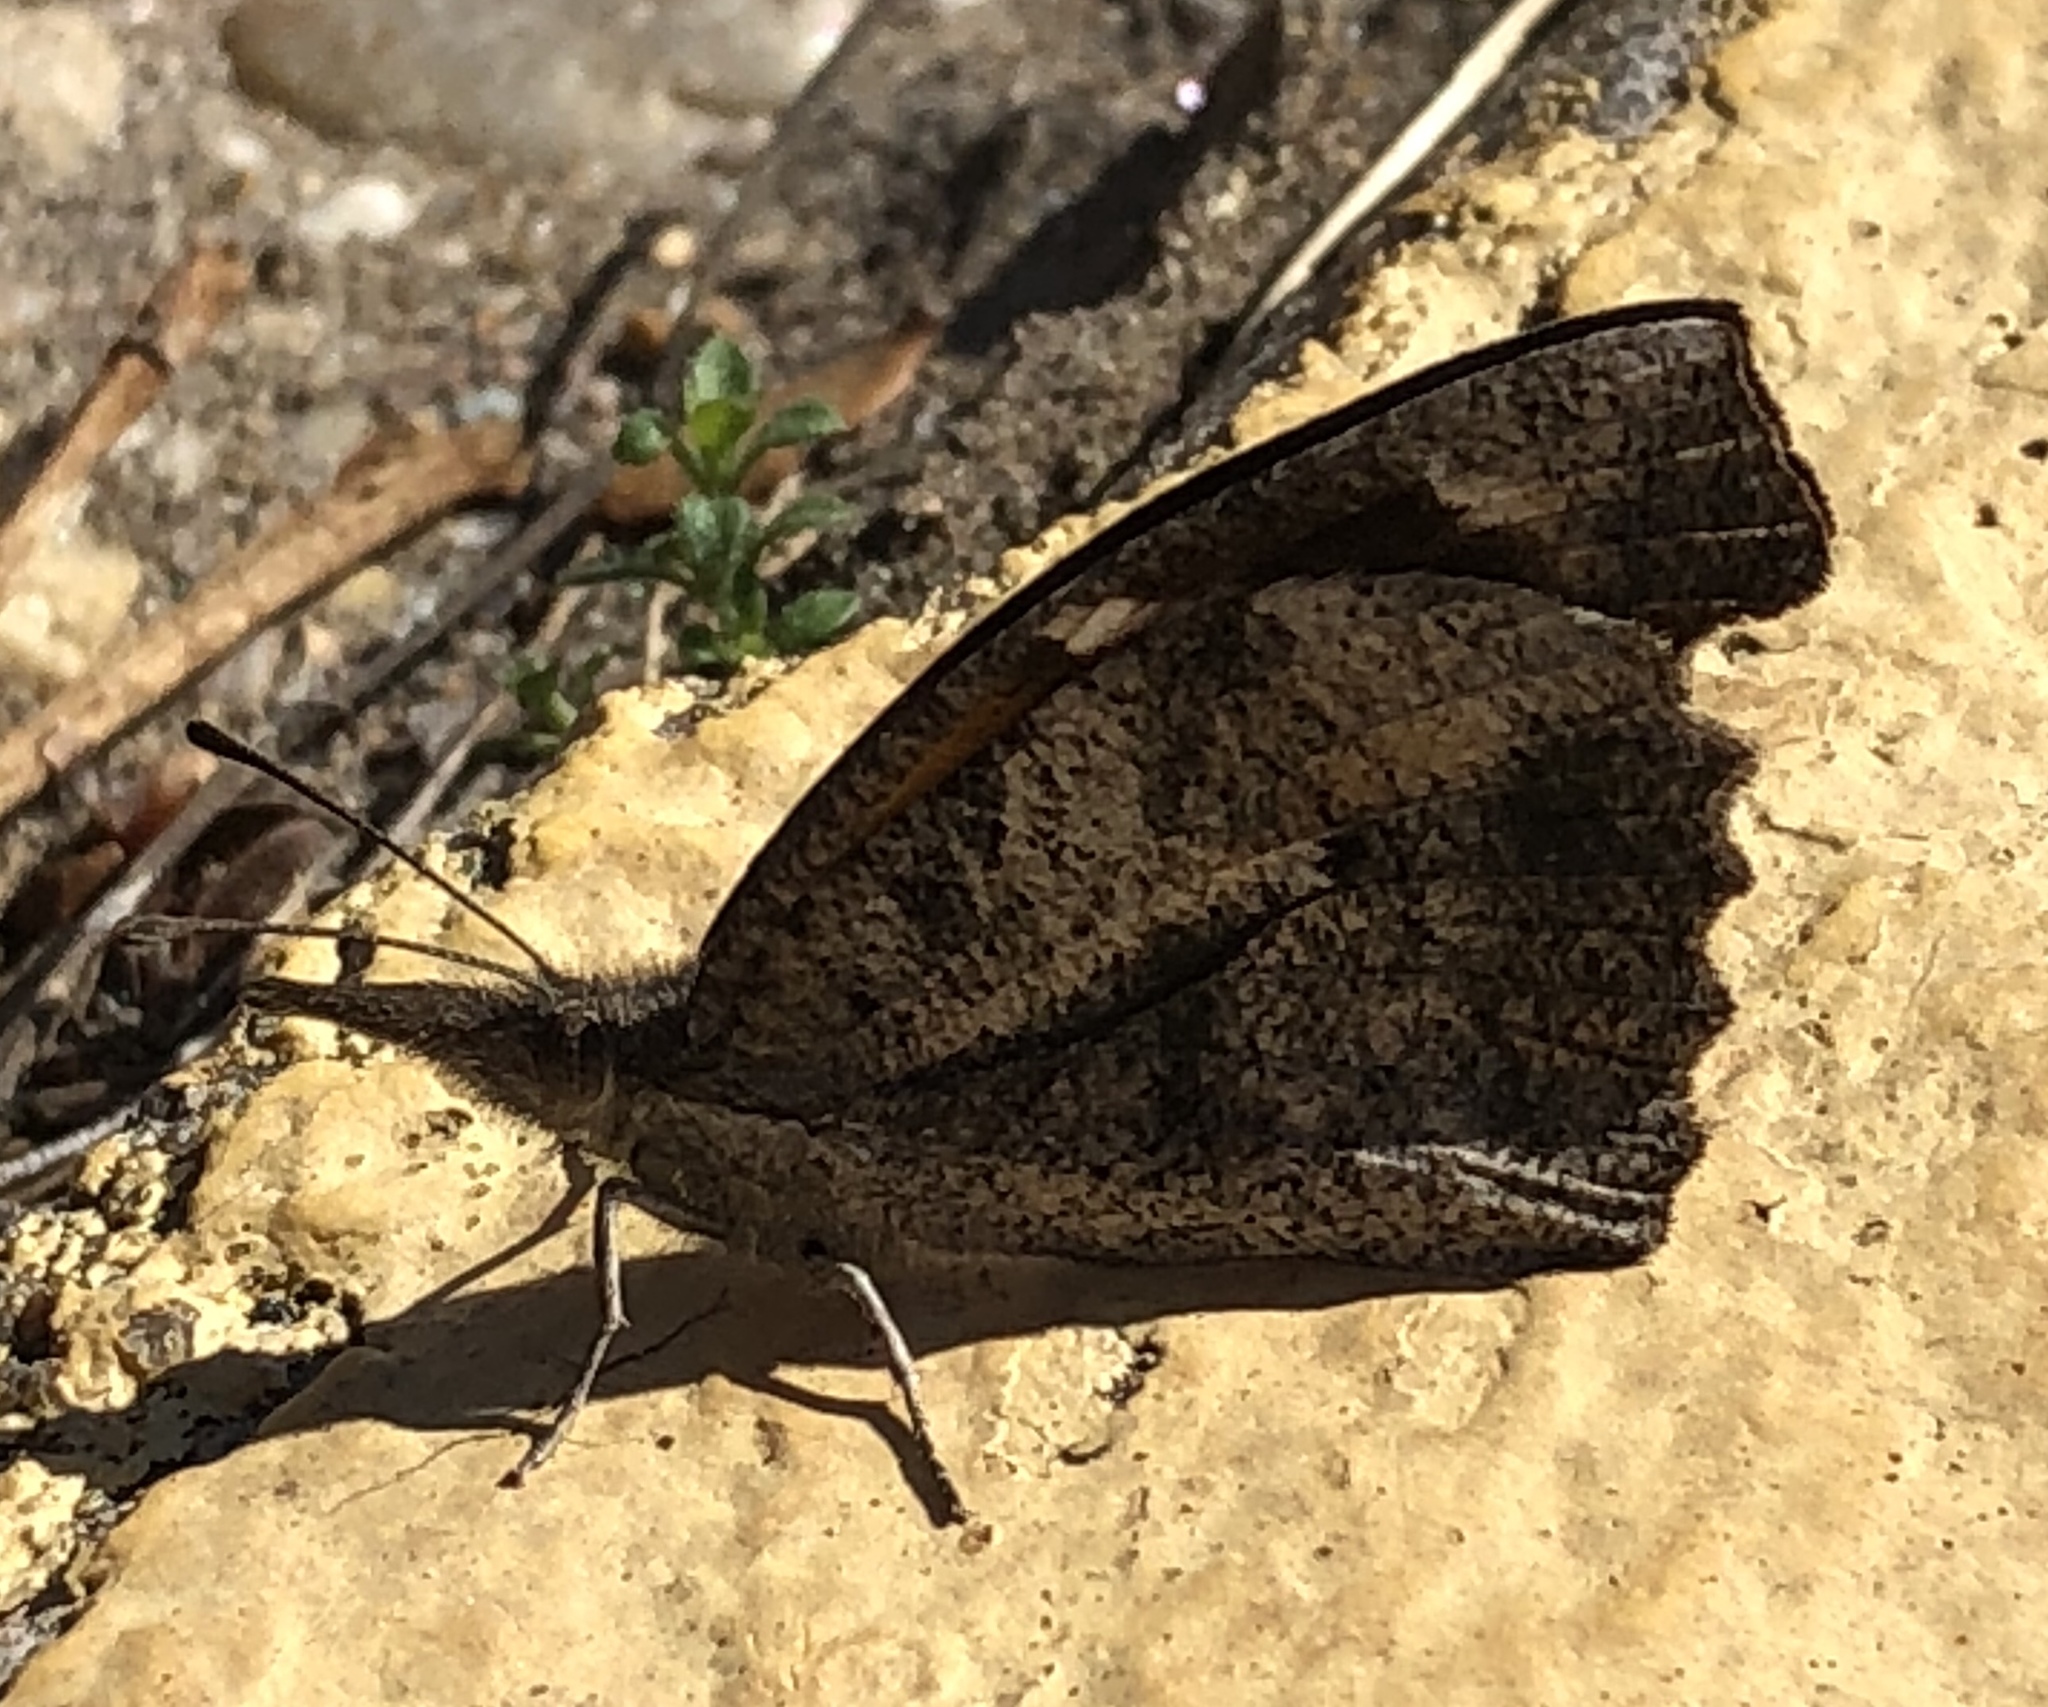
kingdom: Animalia
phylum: Arthropoda
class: Insecta
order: Lepidoptera
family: Nymphalidae
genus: Libytheana
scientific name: Libytheana carinenta
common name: American snout
